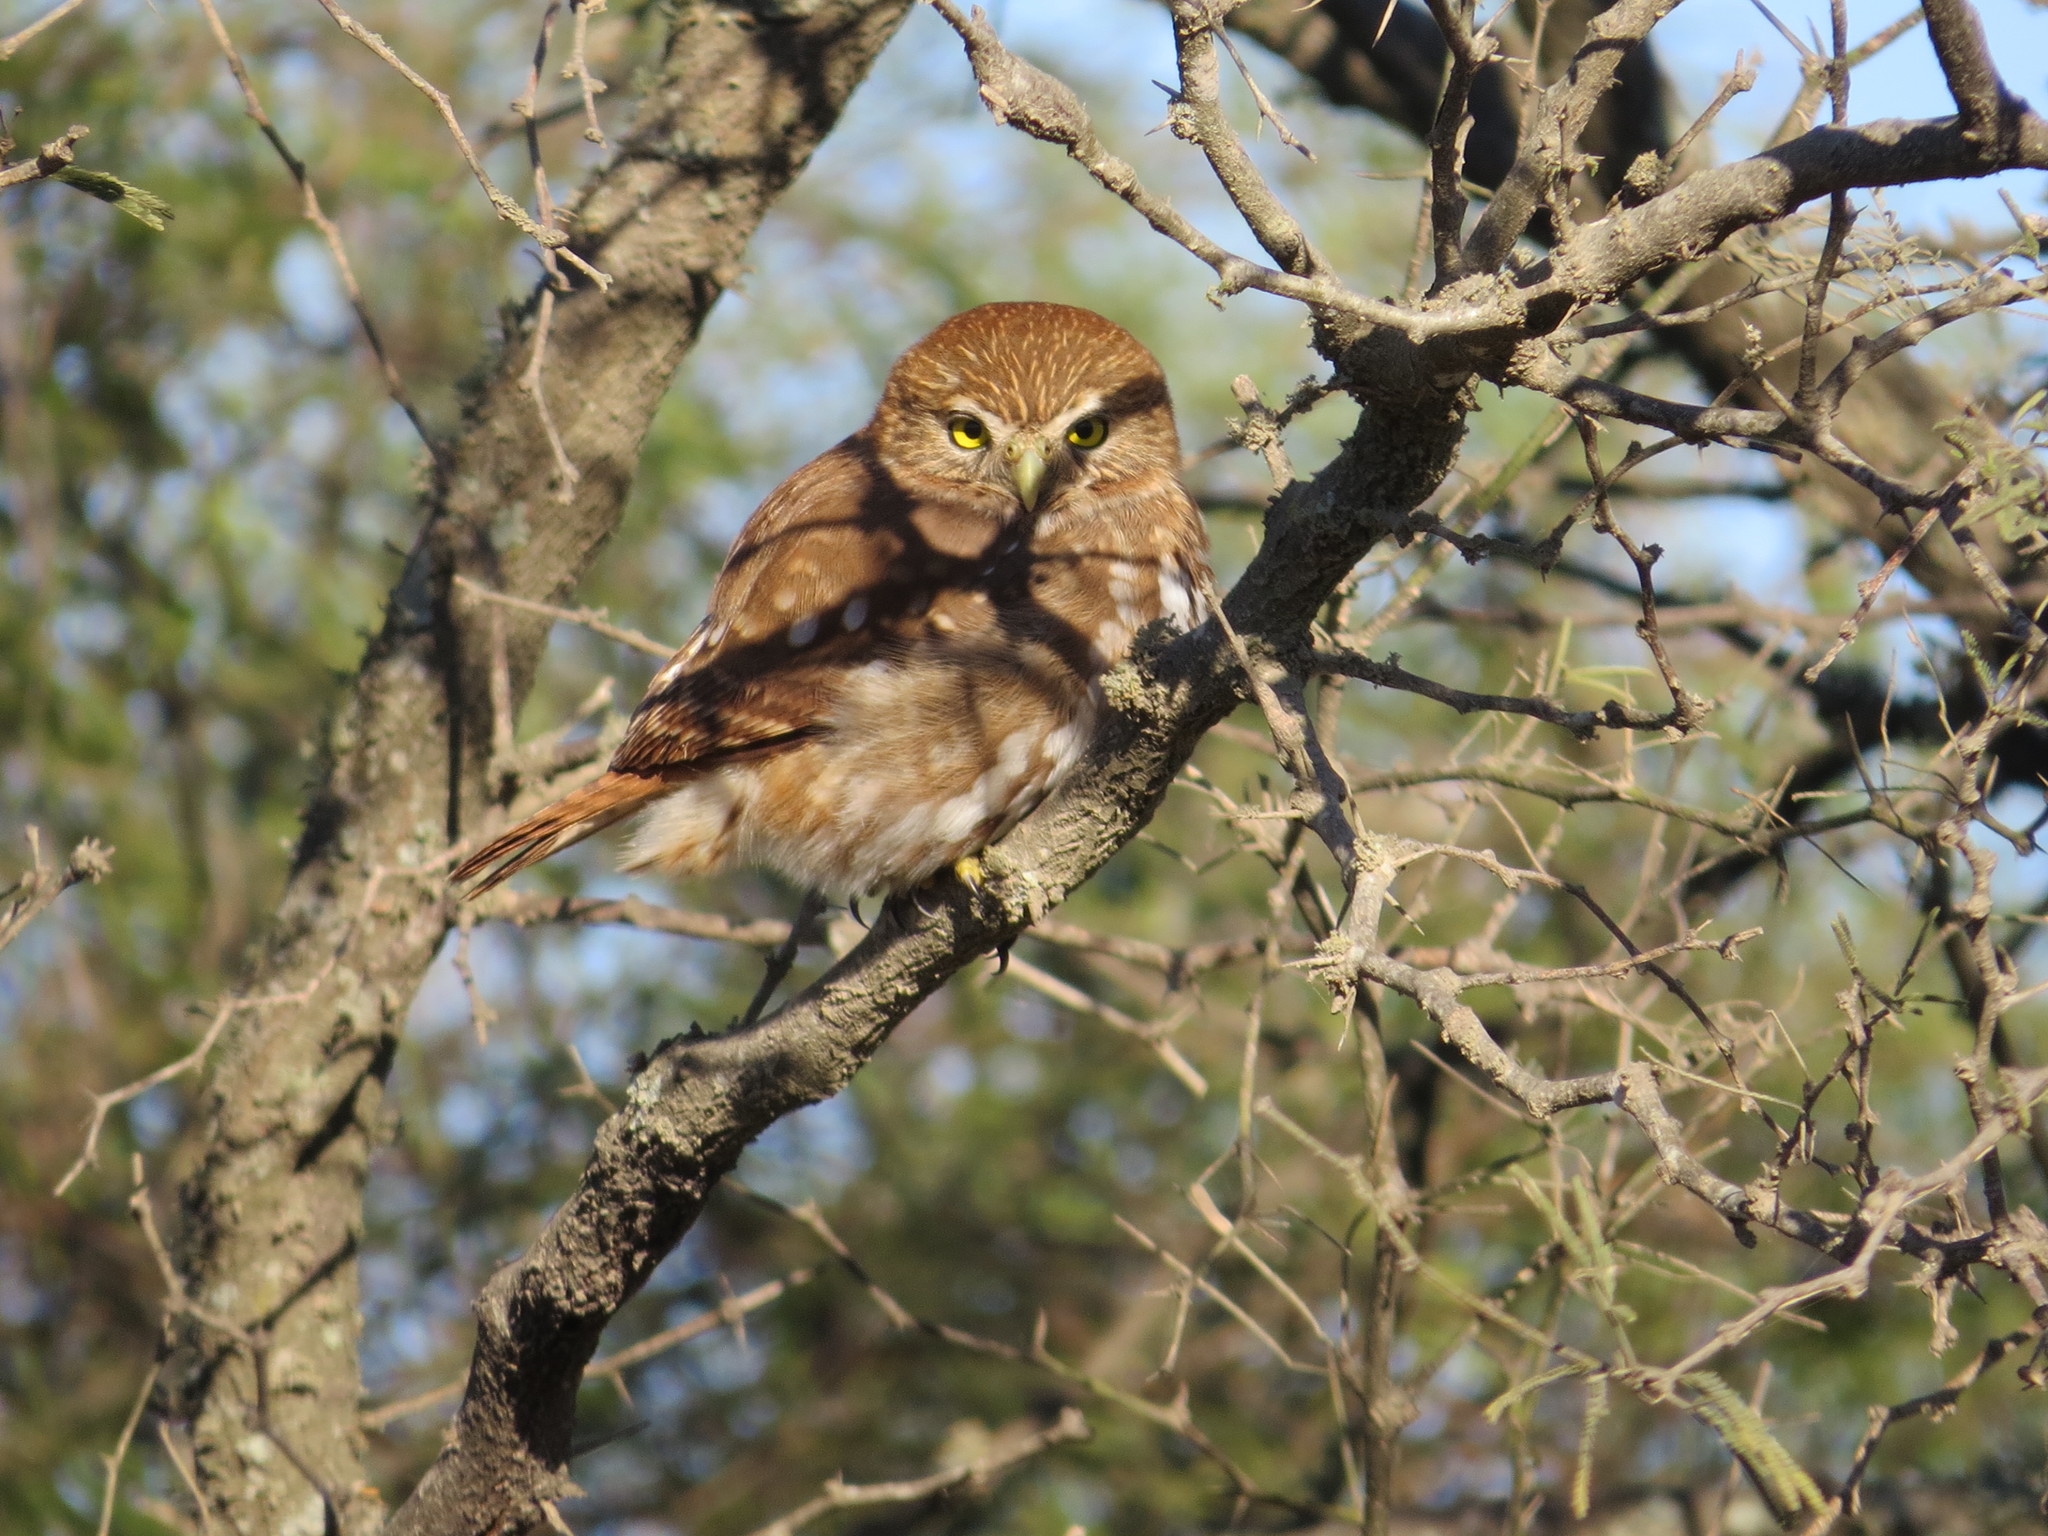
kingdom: Animalia
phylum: Chordata
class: Aves
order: Strigiformes
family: Strigidae
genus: Glaucidium
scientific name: Glaucidium brasilianum
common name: Ferruginous pygmy-owl
